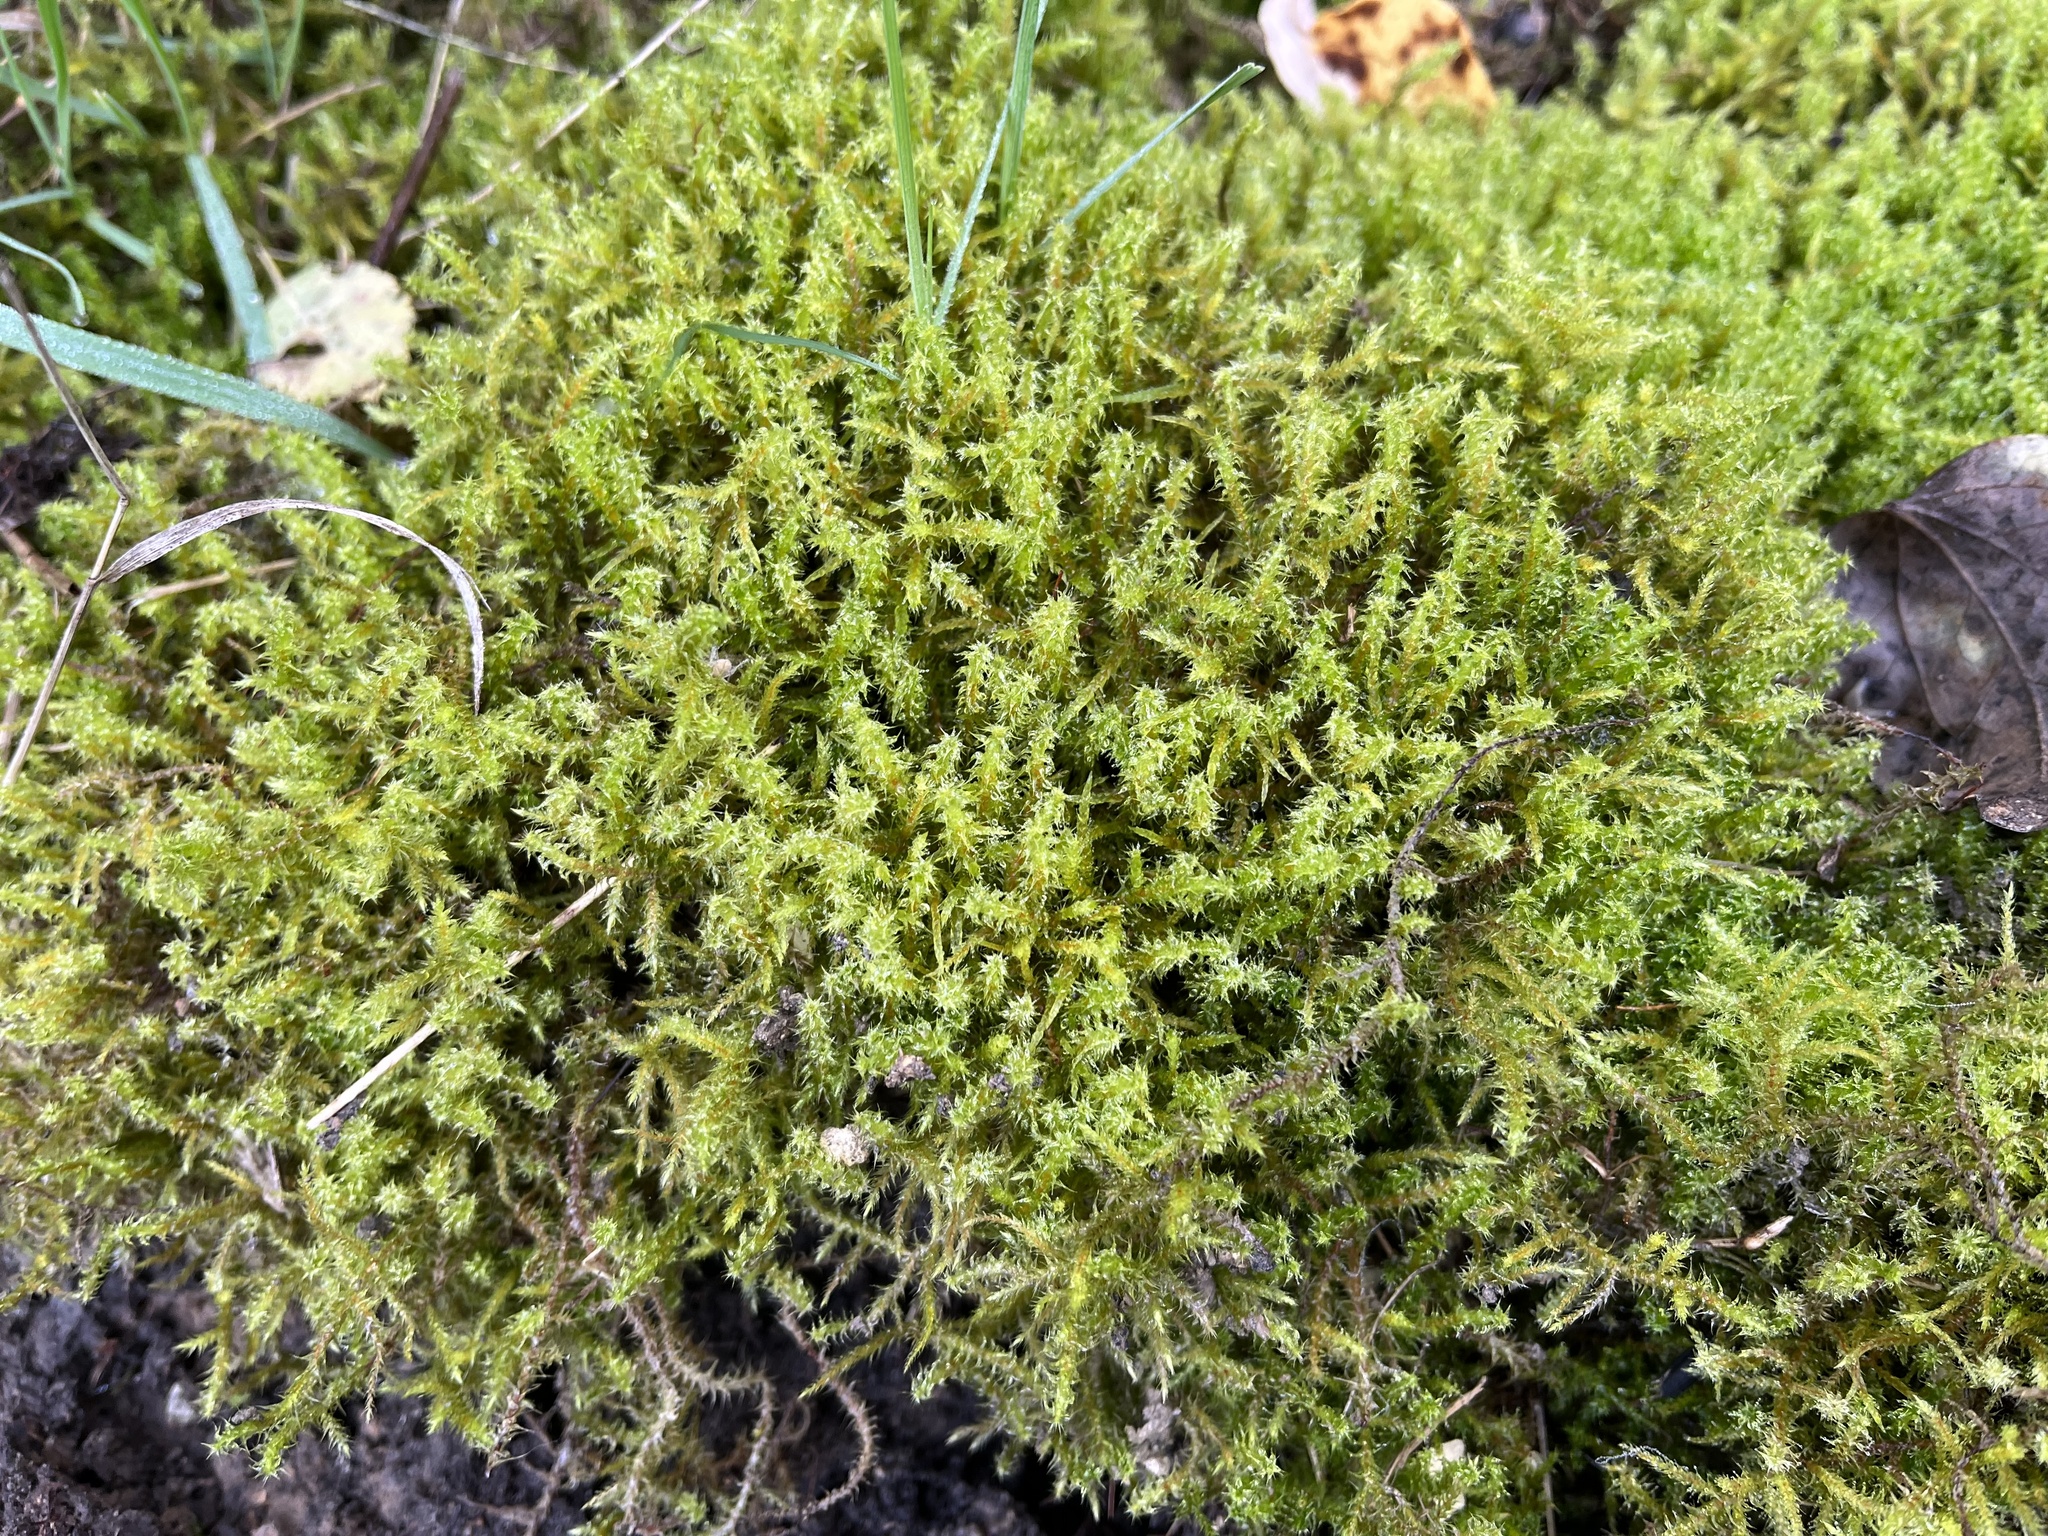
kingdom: Plantae
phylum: Bryophyta
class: Bryopsida
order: Hypnales
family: Hylocomiaceae
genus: Rhytidiadelphus
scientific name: Rhytidiadelphus squarrosus
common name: Springy turf-moss
